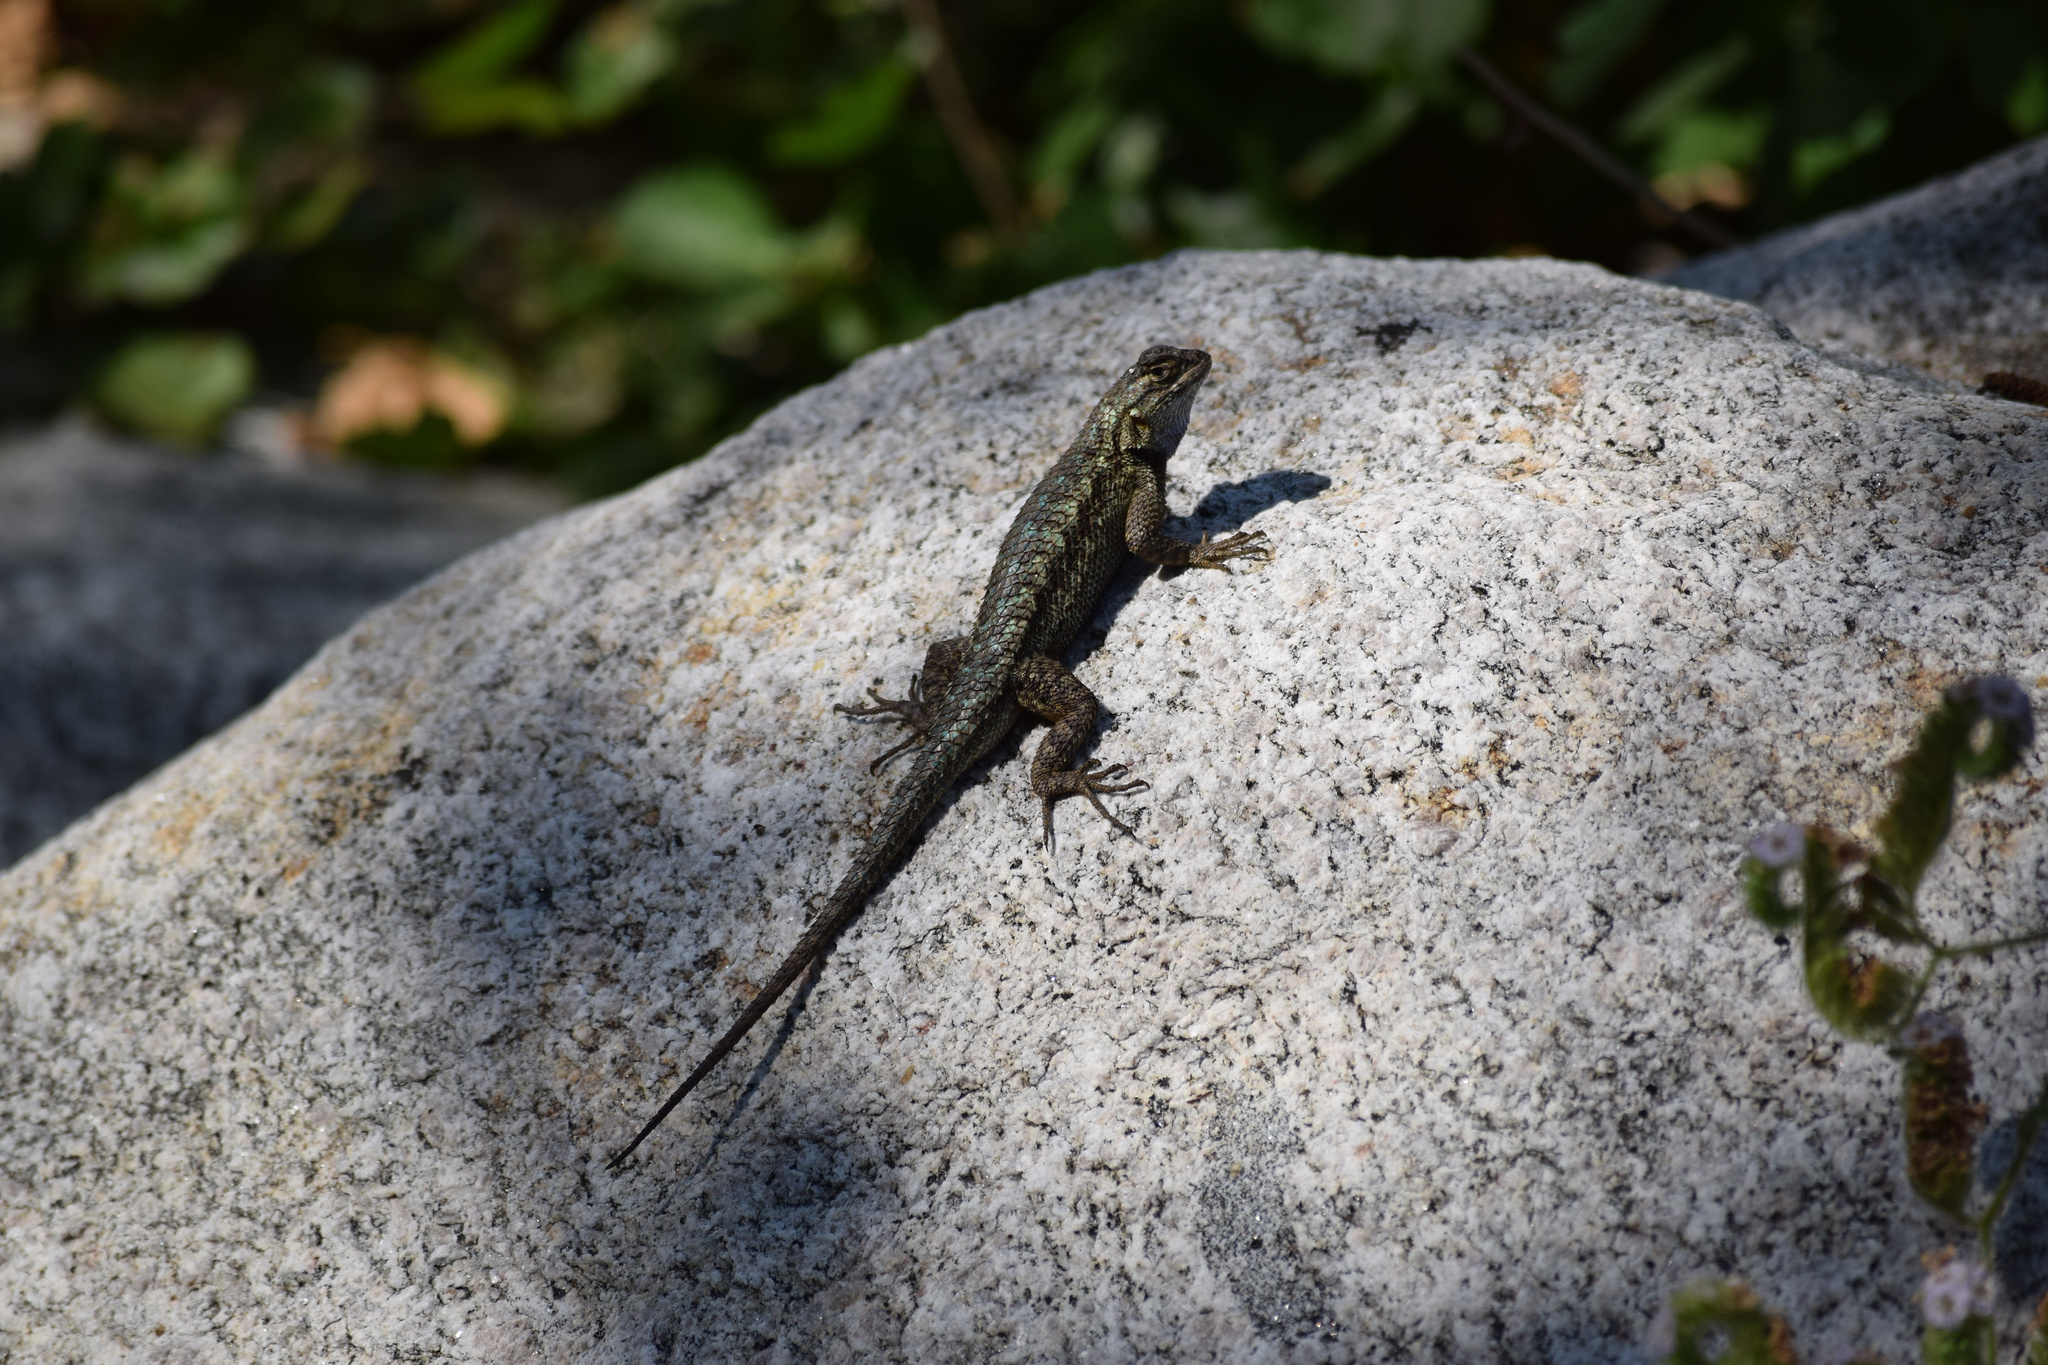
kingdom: Animalia
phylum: Chordata
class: Squamata
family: Phrynosomatidae
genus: Sceloporus
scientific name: Sceloporus occidentalis
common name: Western fence lizard
